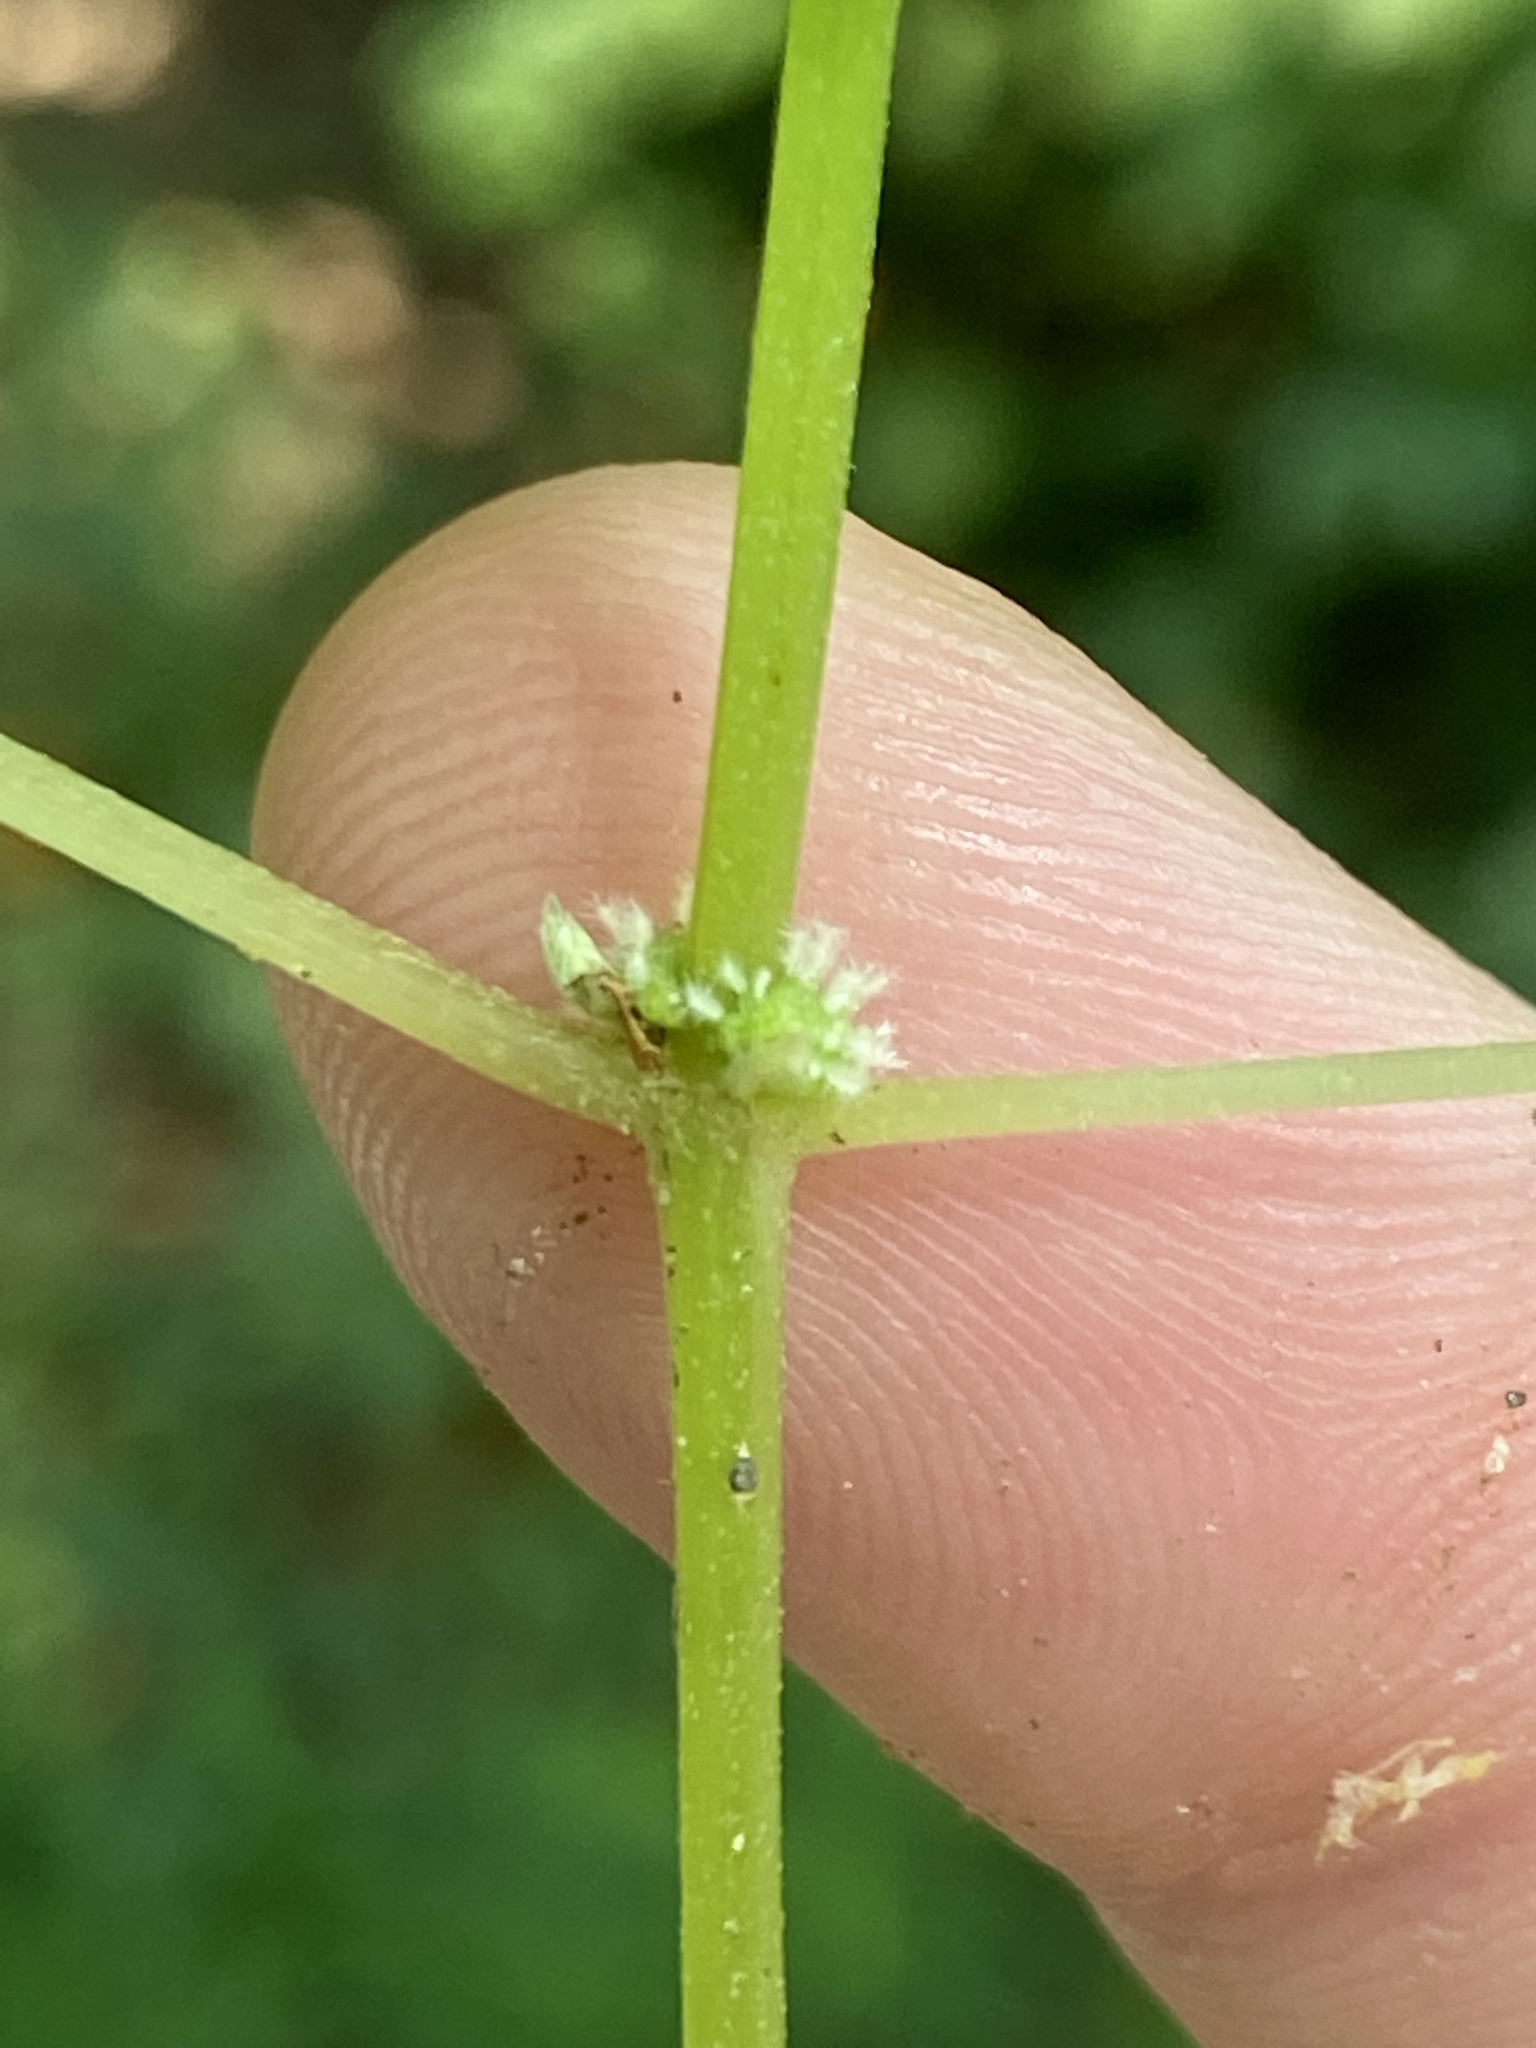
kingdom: Plantae
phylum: Tracheophyta
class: Magnoliopsida
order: Rosales
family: Urticaceae
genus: Boehmeria
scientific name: Boehmeria cylindrica
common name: Bog-hemp
